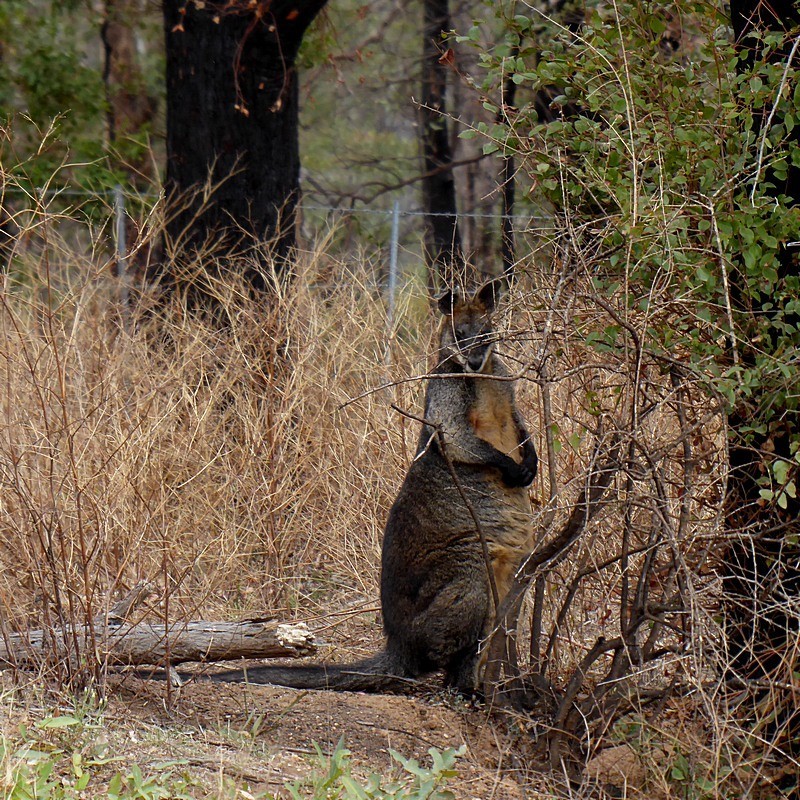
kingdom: Animalia
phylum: Chordata
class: Mammalia
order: Diprotodontia
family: Macropodidae
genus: Wallabia
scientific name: Wallabia bicolor
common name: Swamp wallaby
